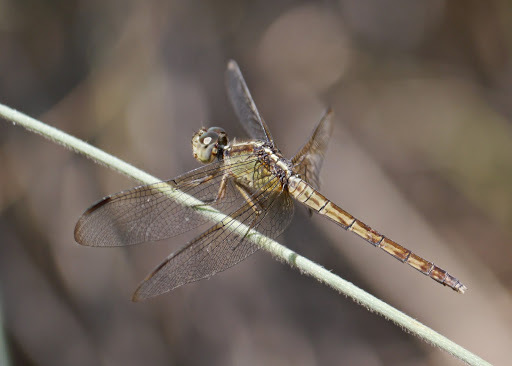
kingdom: Animalia
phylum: Arthropoda
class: Insecta
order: Odonata
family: Libellulidae
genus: Erythrodiplax
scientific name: Erythrodiplax umbrata
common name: Band-winged dragonlet
